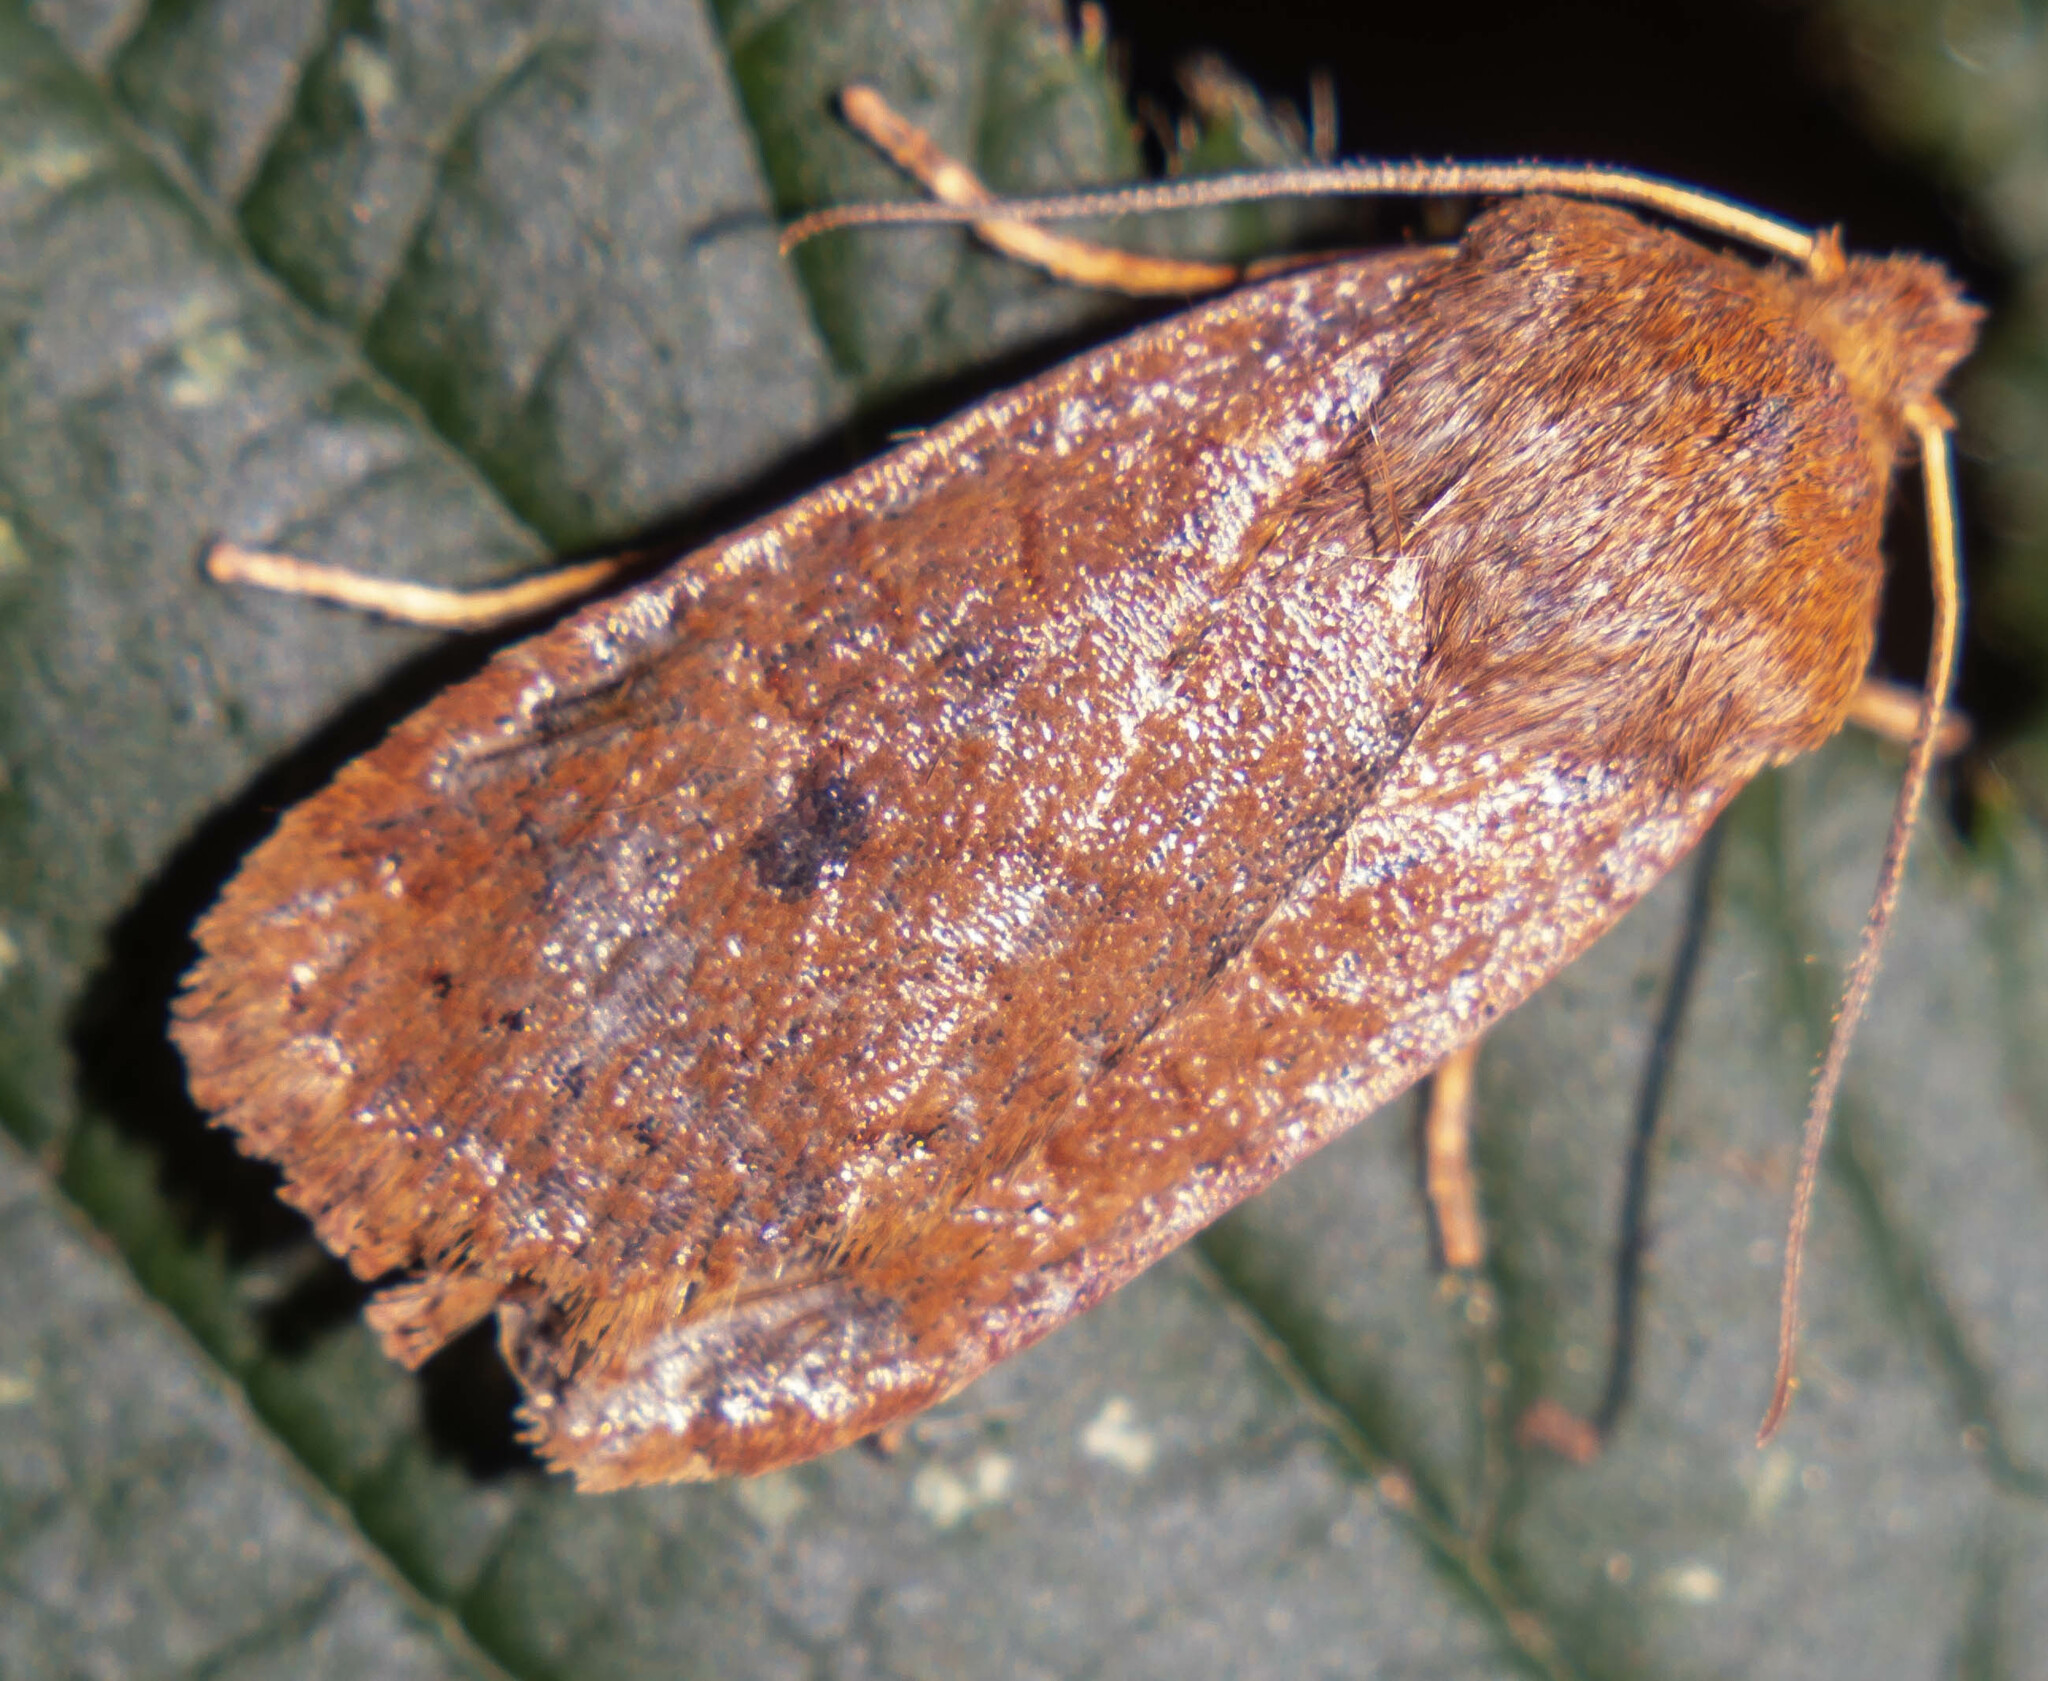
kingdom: Animalia
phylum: Arthropoda
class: Insecta
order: Lepidoptera
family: Noctuidae
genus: Conistra
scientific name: Conistra vaccinii
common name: Chestnut
